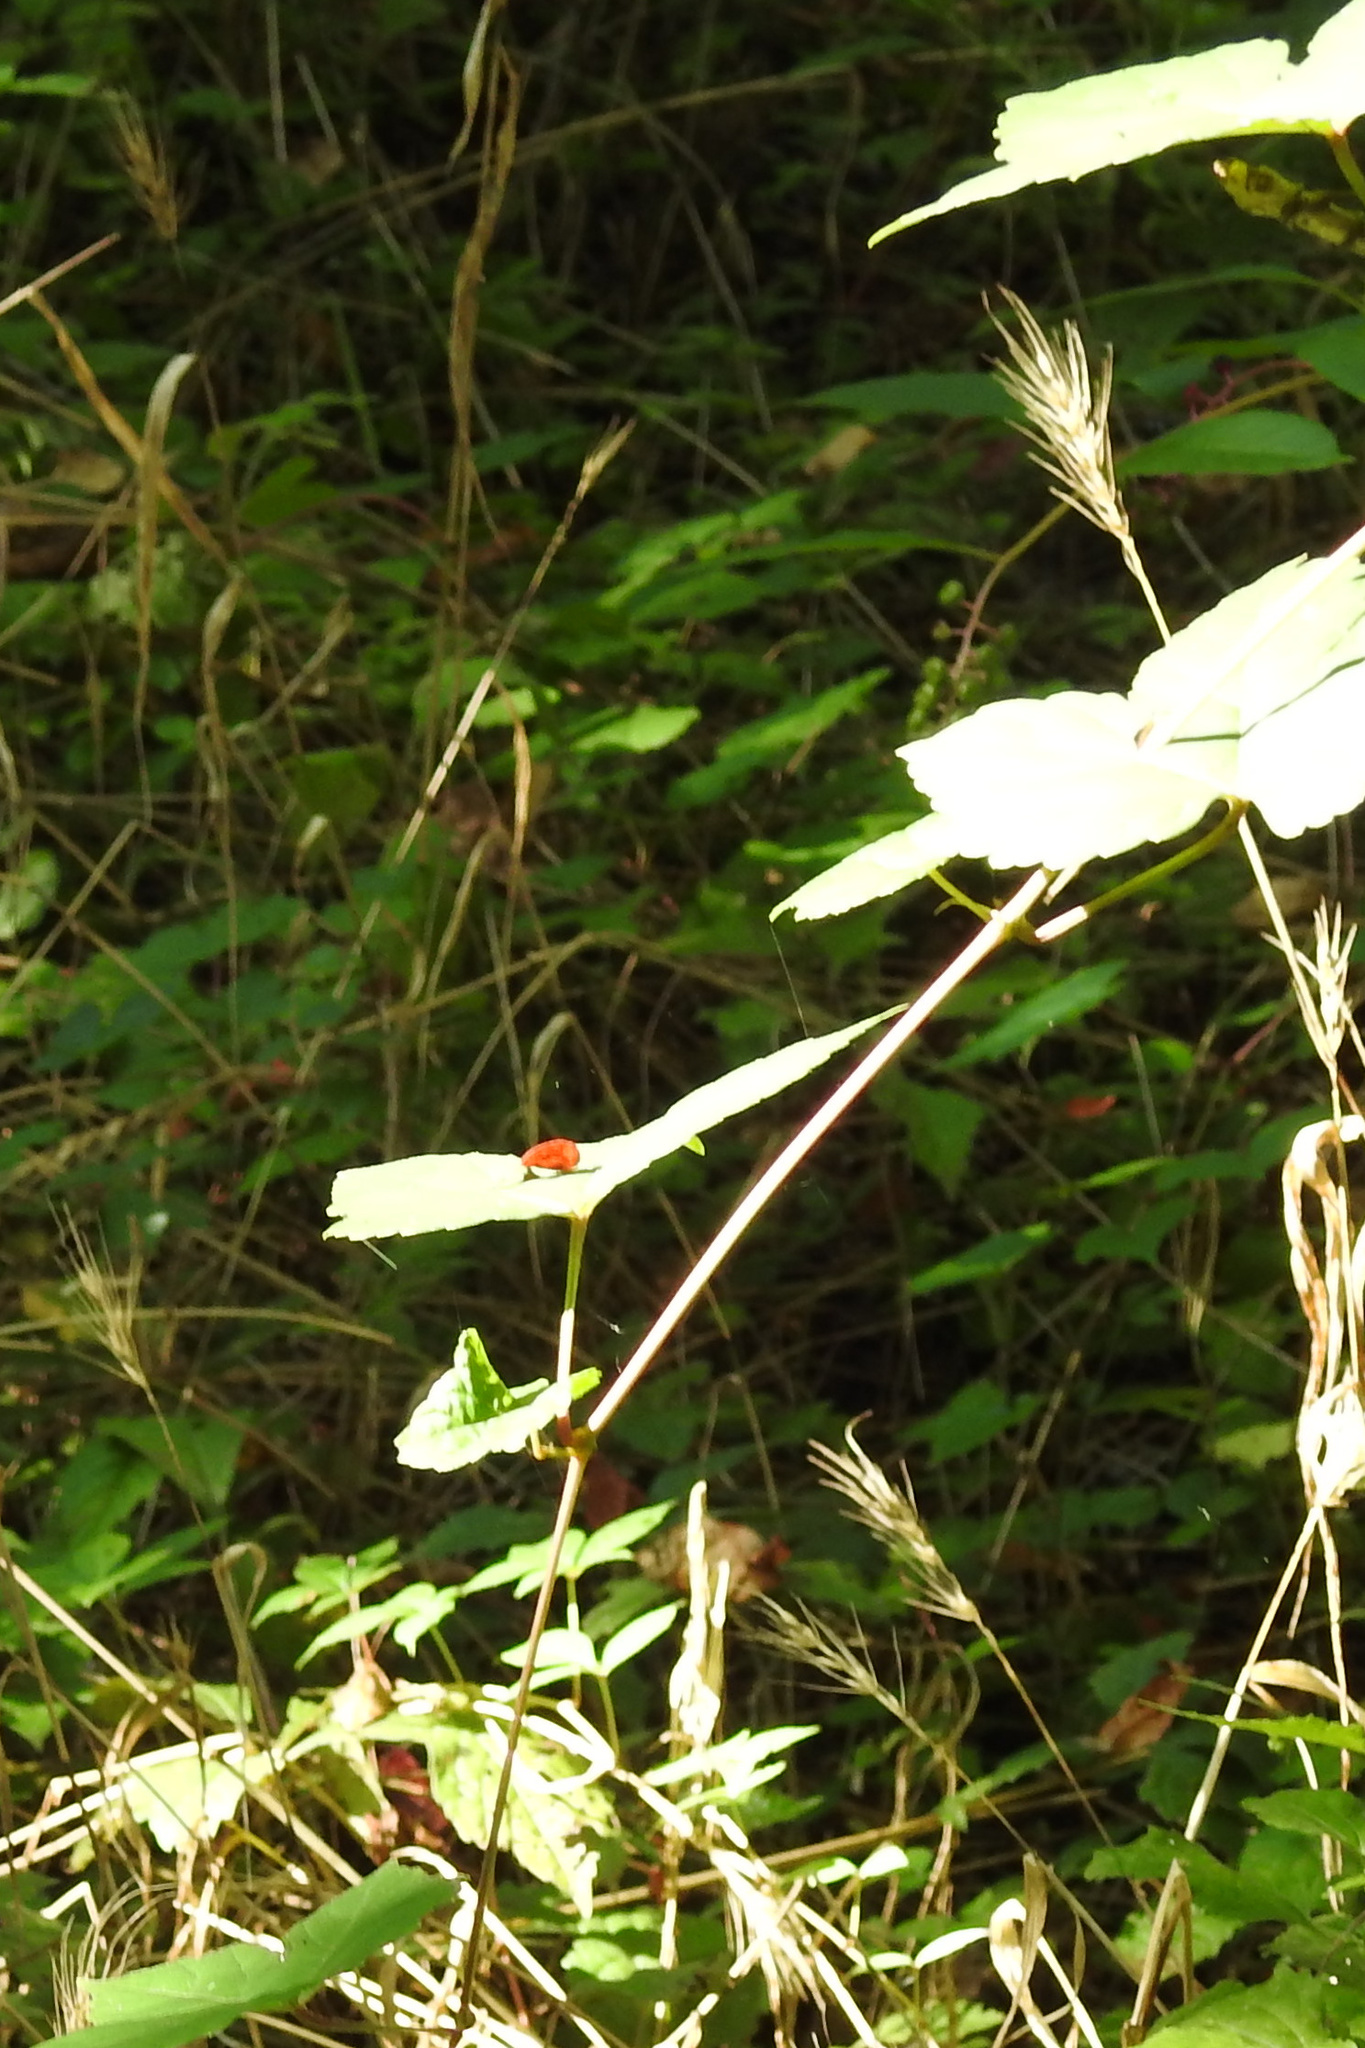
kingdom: Plantae
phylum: Tracheophyta
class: Magnoliopsida
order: Ericales
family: Balsaminaceae
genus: Impatiens
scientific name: Impatiens capensis
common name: Orange balsam
